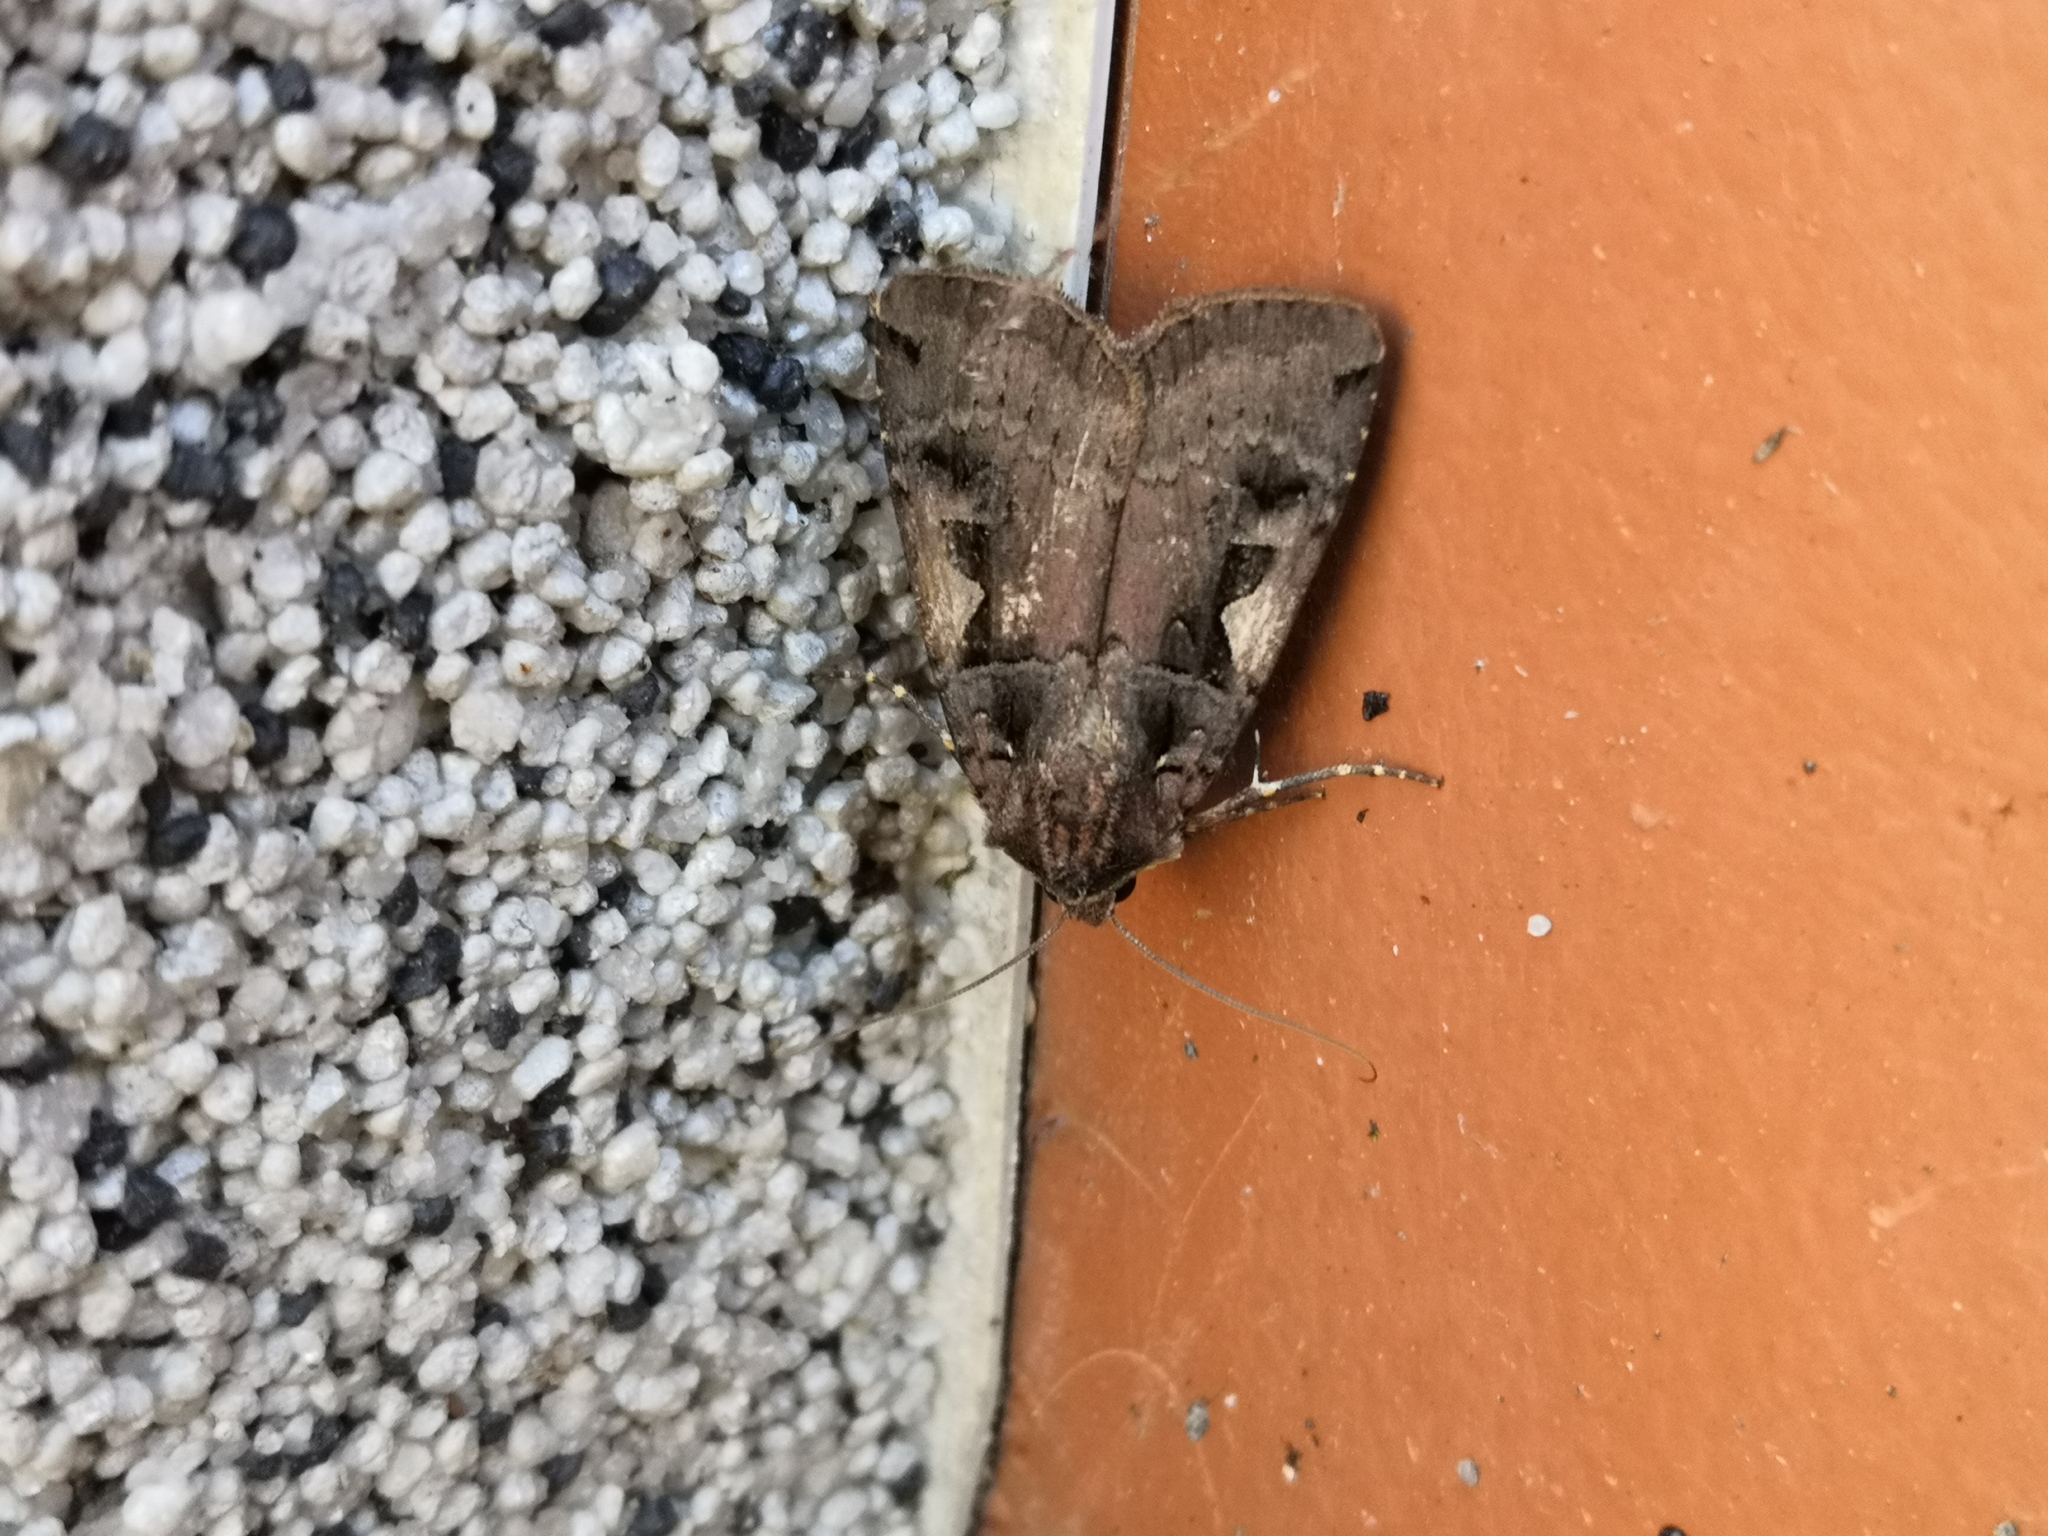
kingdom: Animalia
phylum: Arthropoda
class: Insecta
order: Lepidoptera
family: Noctuidae
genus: Xestia
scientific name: Xestia c-nigrum
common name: Setaceous hebrew character
